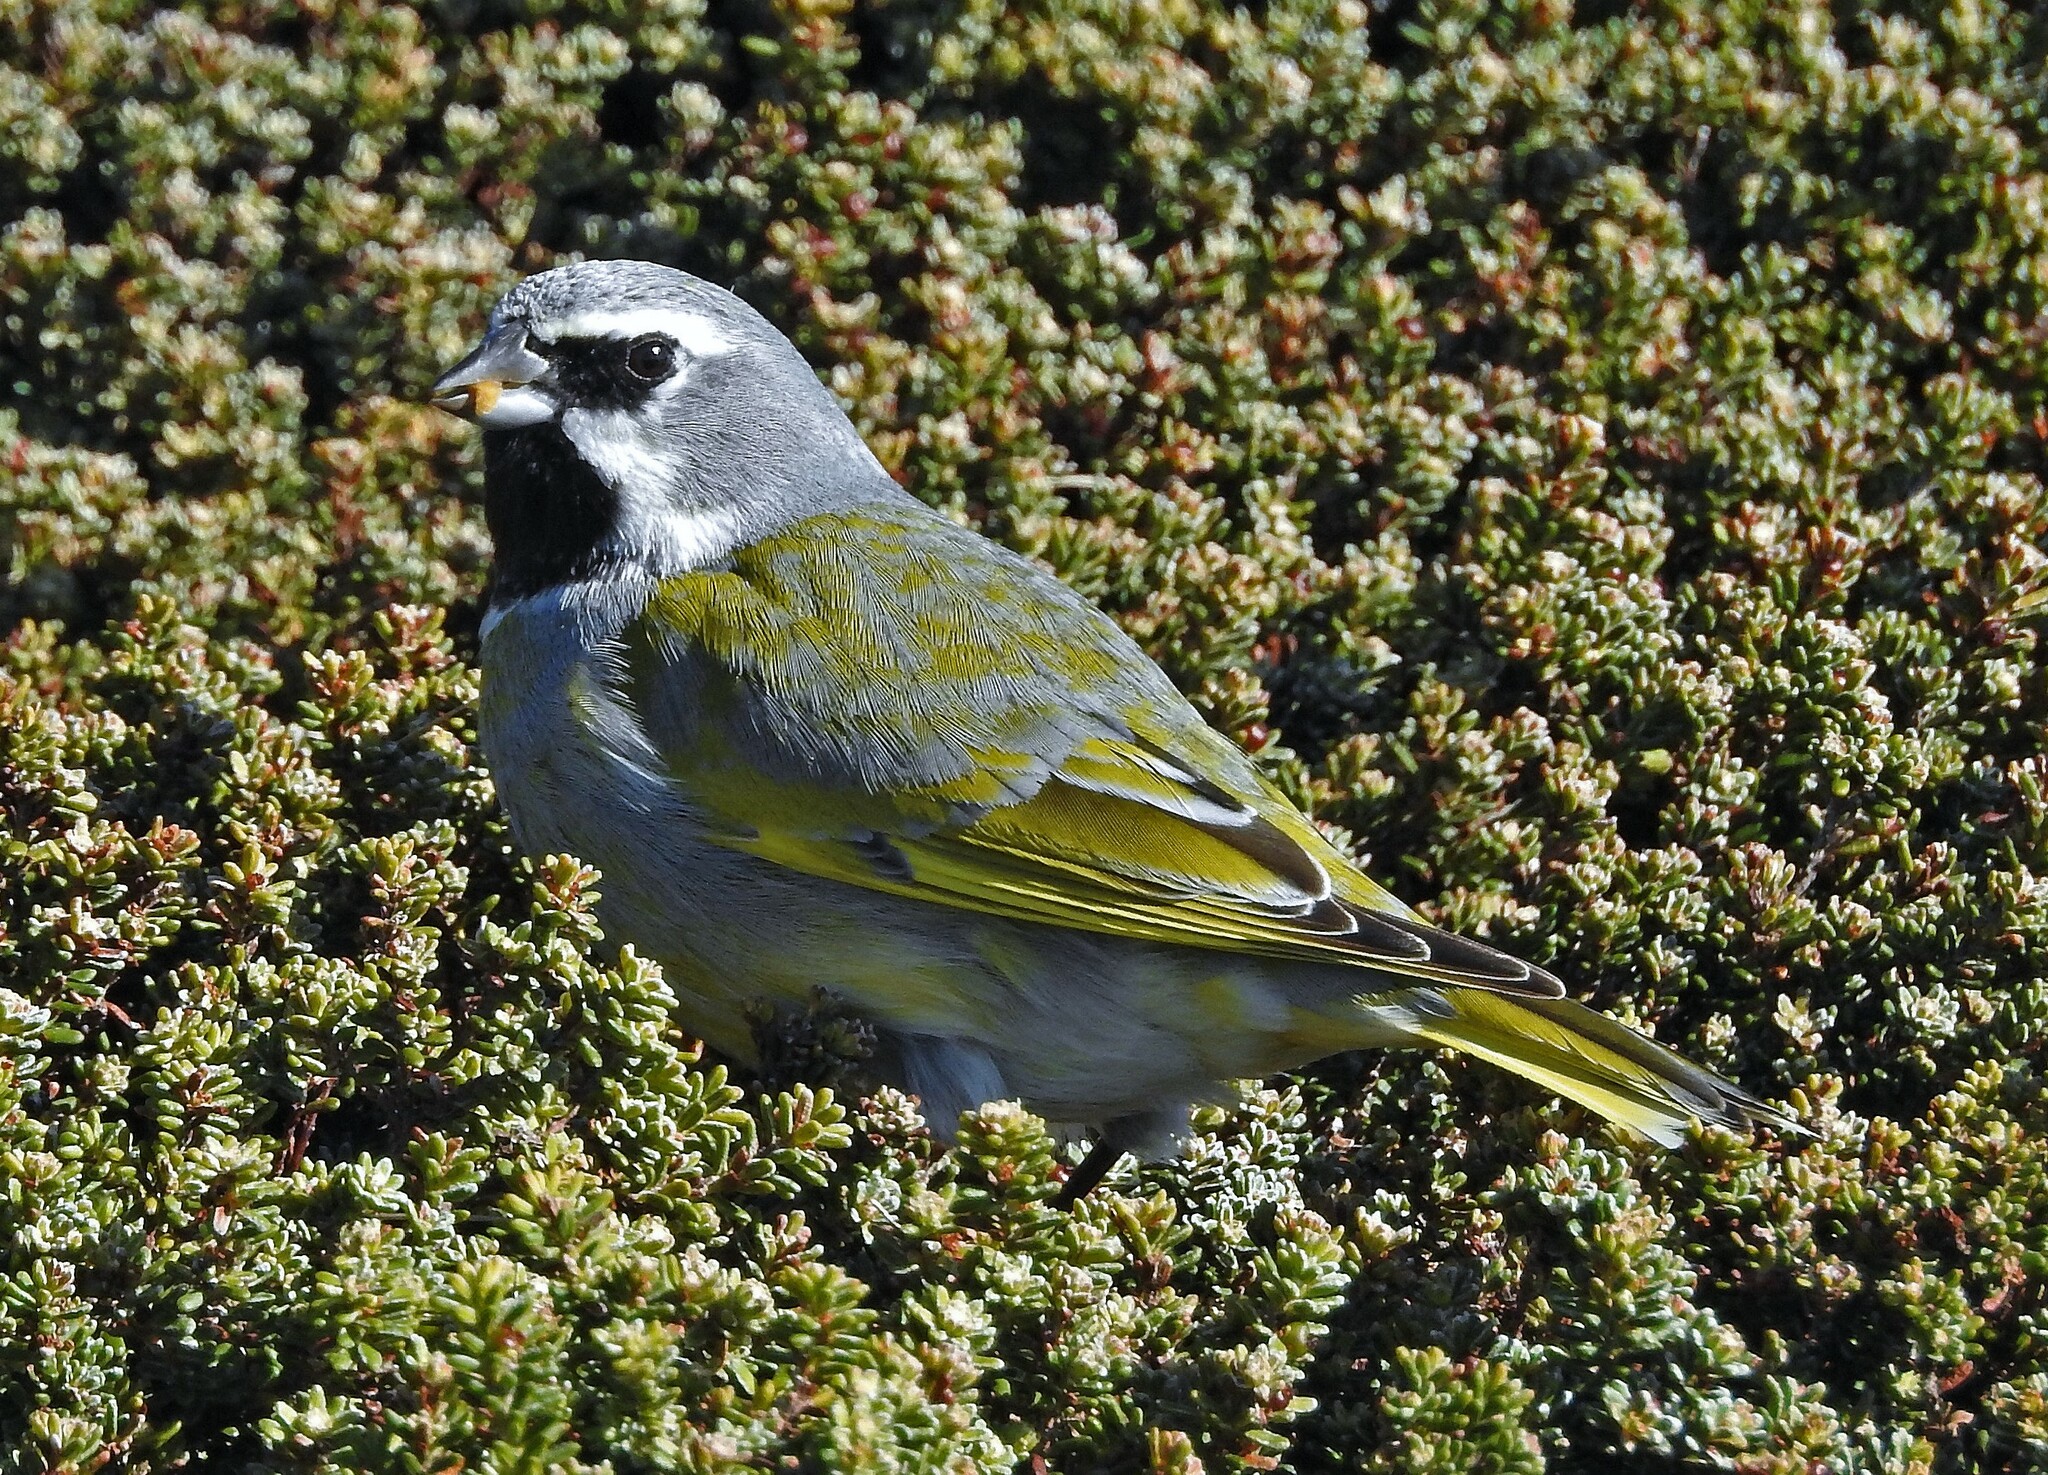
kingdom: Animalia
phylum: Chordata
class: Aves
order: Passeriformes
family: Thraupidae
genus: Melanodera
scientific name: Melanodera melanodera
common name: White-bridled finch
